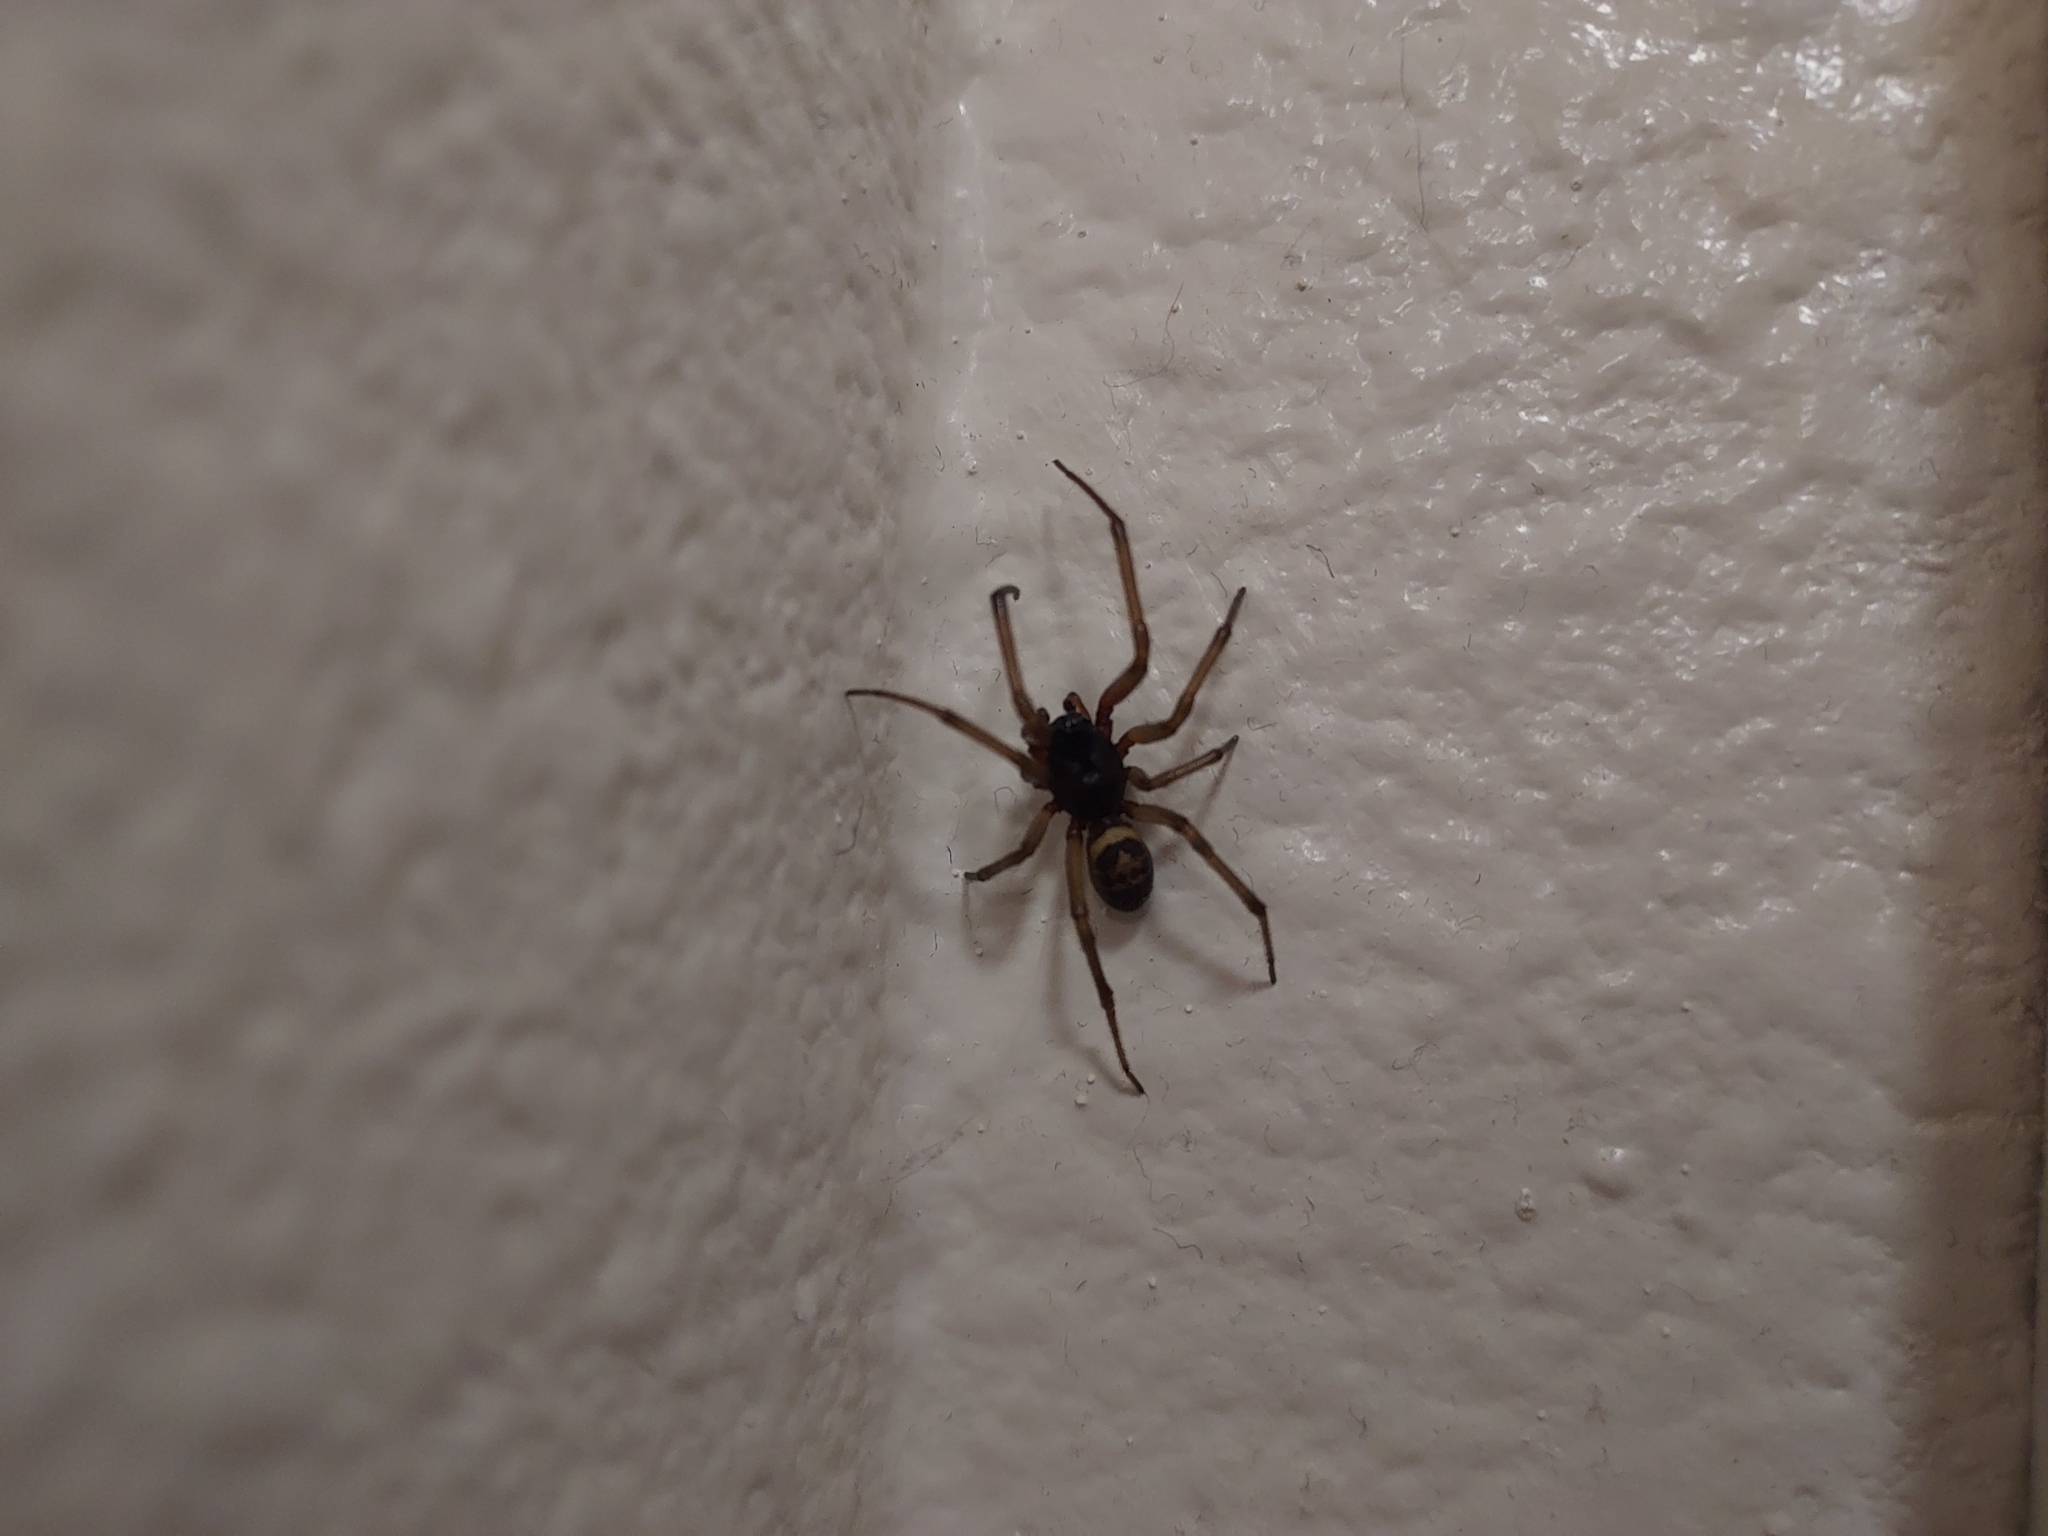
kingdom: Animalia
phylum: Arthropoda
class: Arachnida
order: Araneae
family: Theridiidae
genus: Steatoda
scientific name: Steatoda nobilis
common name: Cobweb weaver
